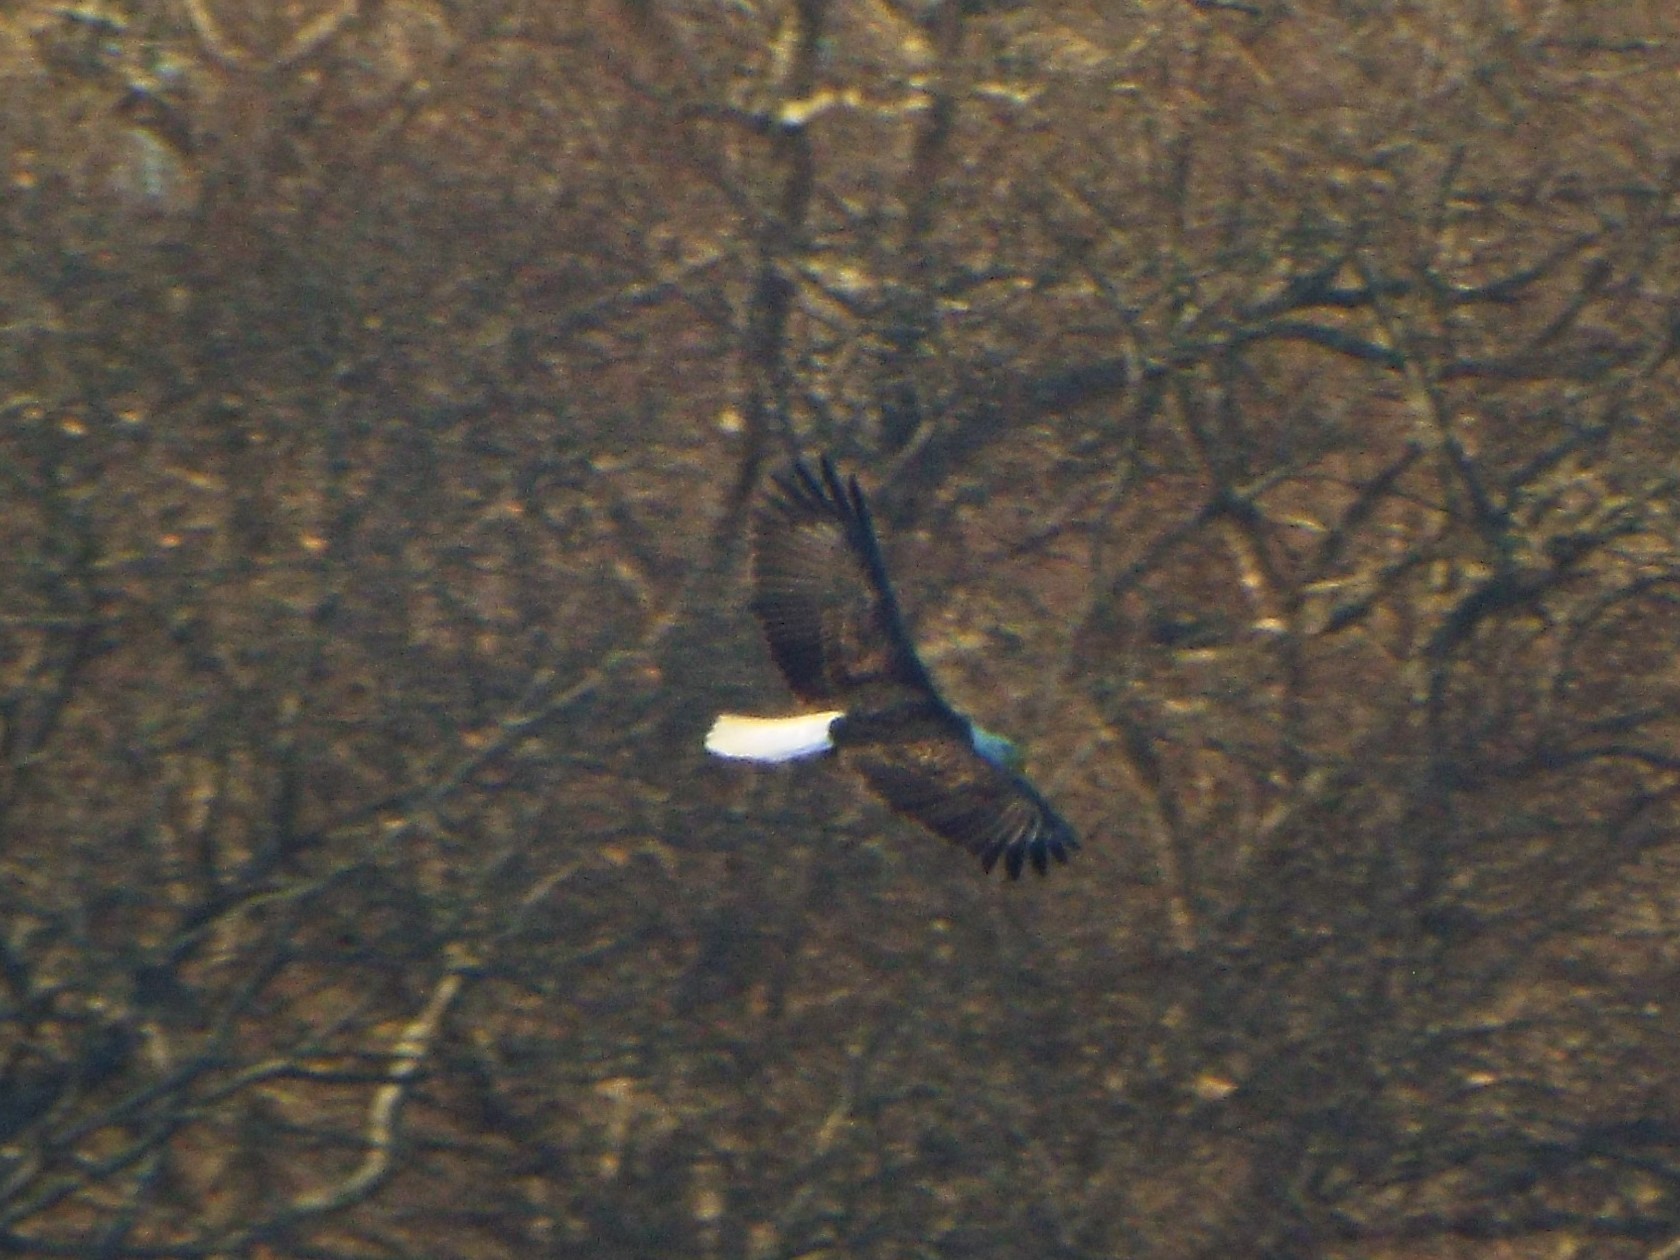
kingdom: Animalia
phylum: Chordata
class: Aves
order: Accipitriformes
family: Accipitridae
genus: Haliaeetus
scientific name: Haliaeetus leucocephalus
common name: Bald eagle
